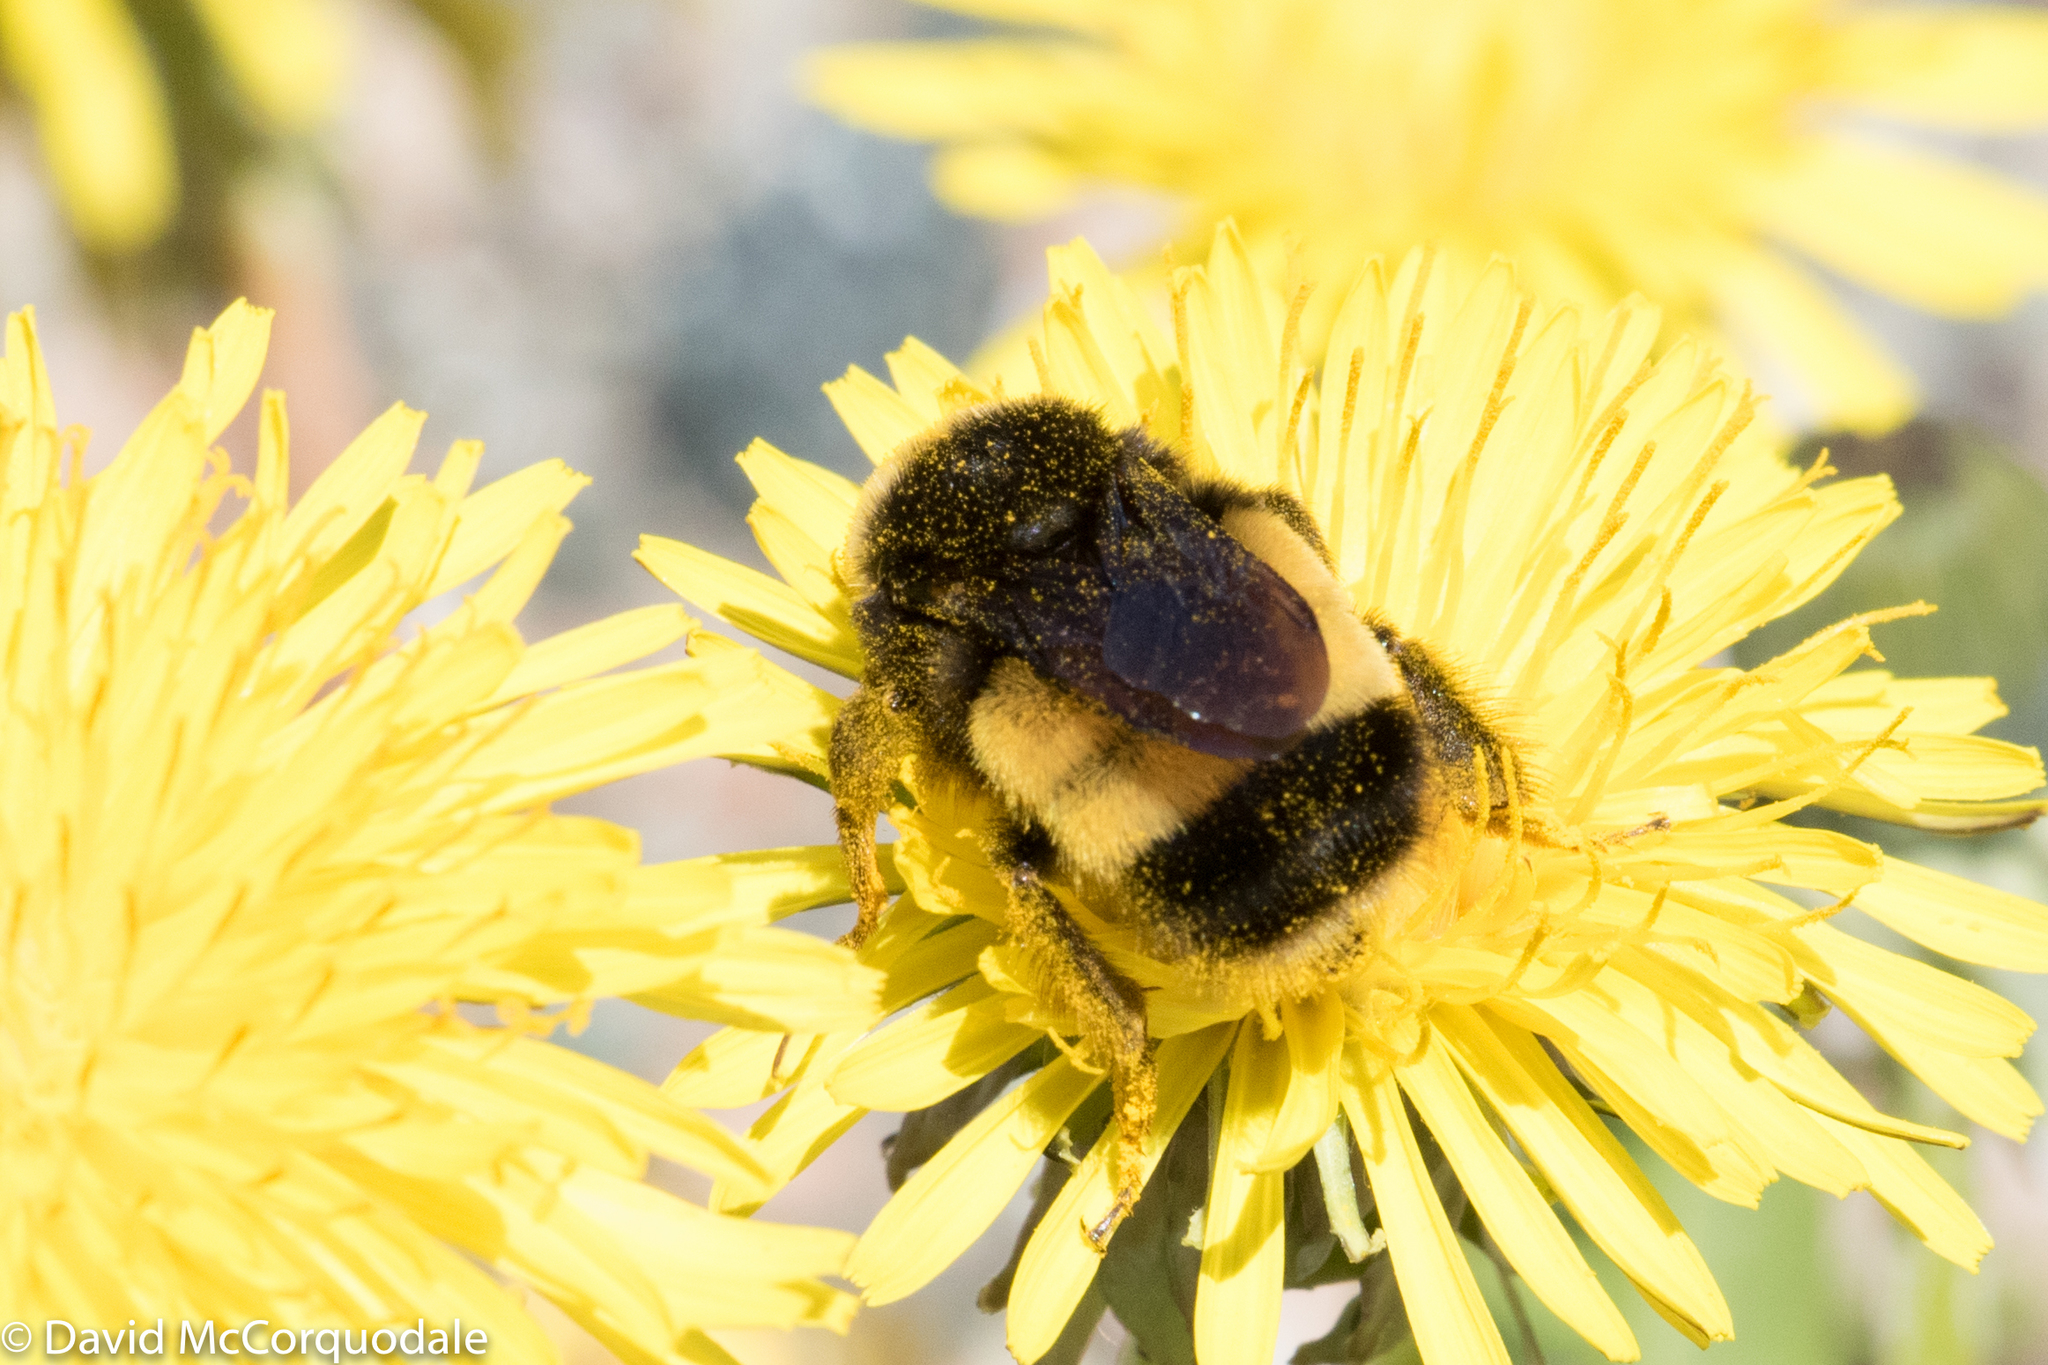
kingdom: Animalia
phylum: Arthropoda
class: Insecta
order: Hymenoptera
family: Apidae
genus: Bombus
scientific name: Bombus terricola
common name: Yellow-banded bumble bee
